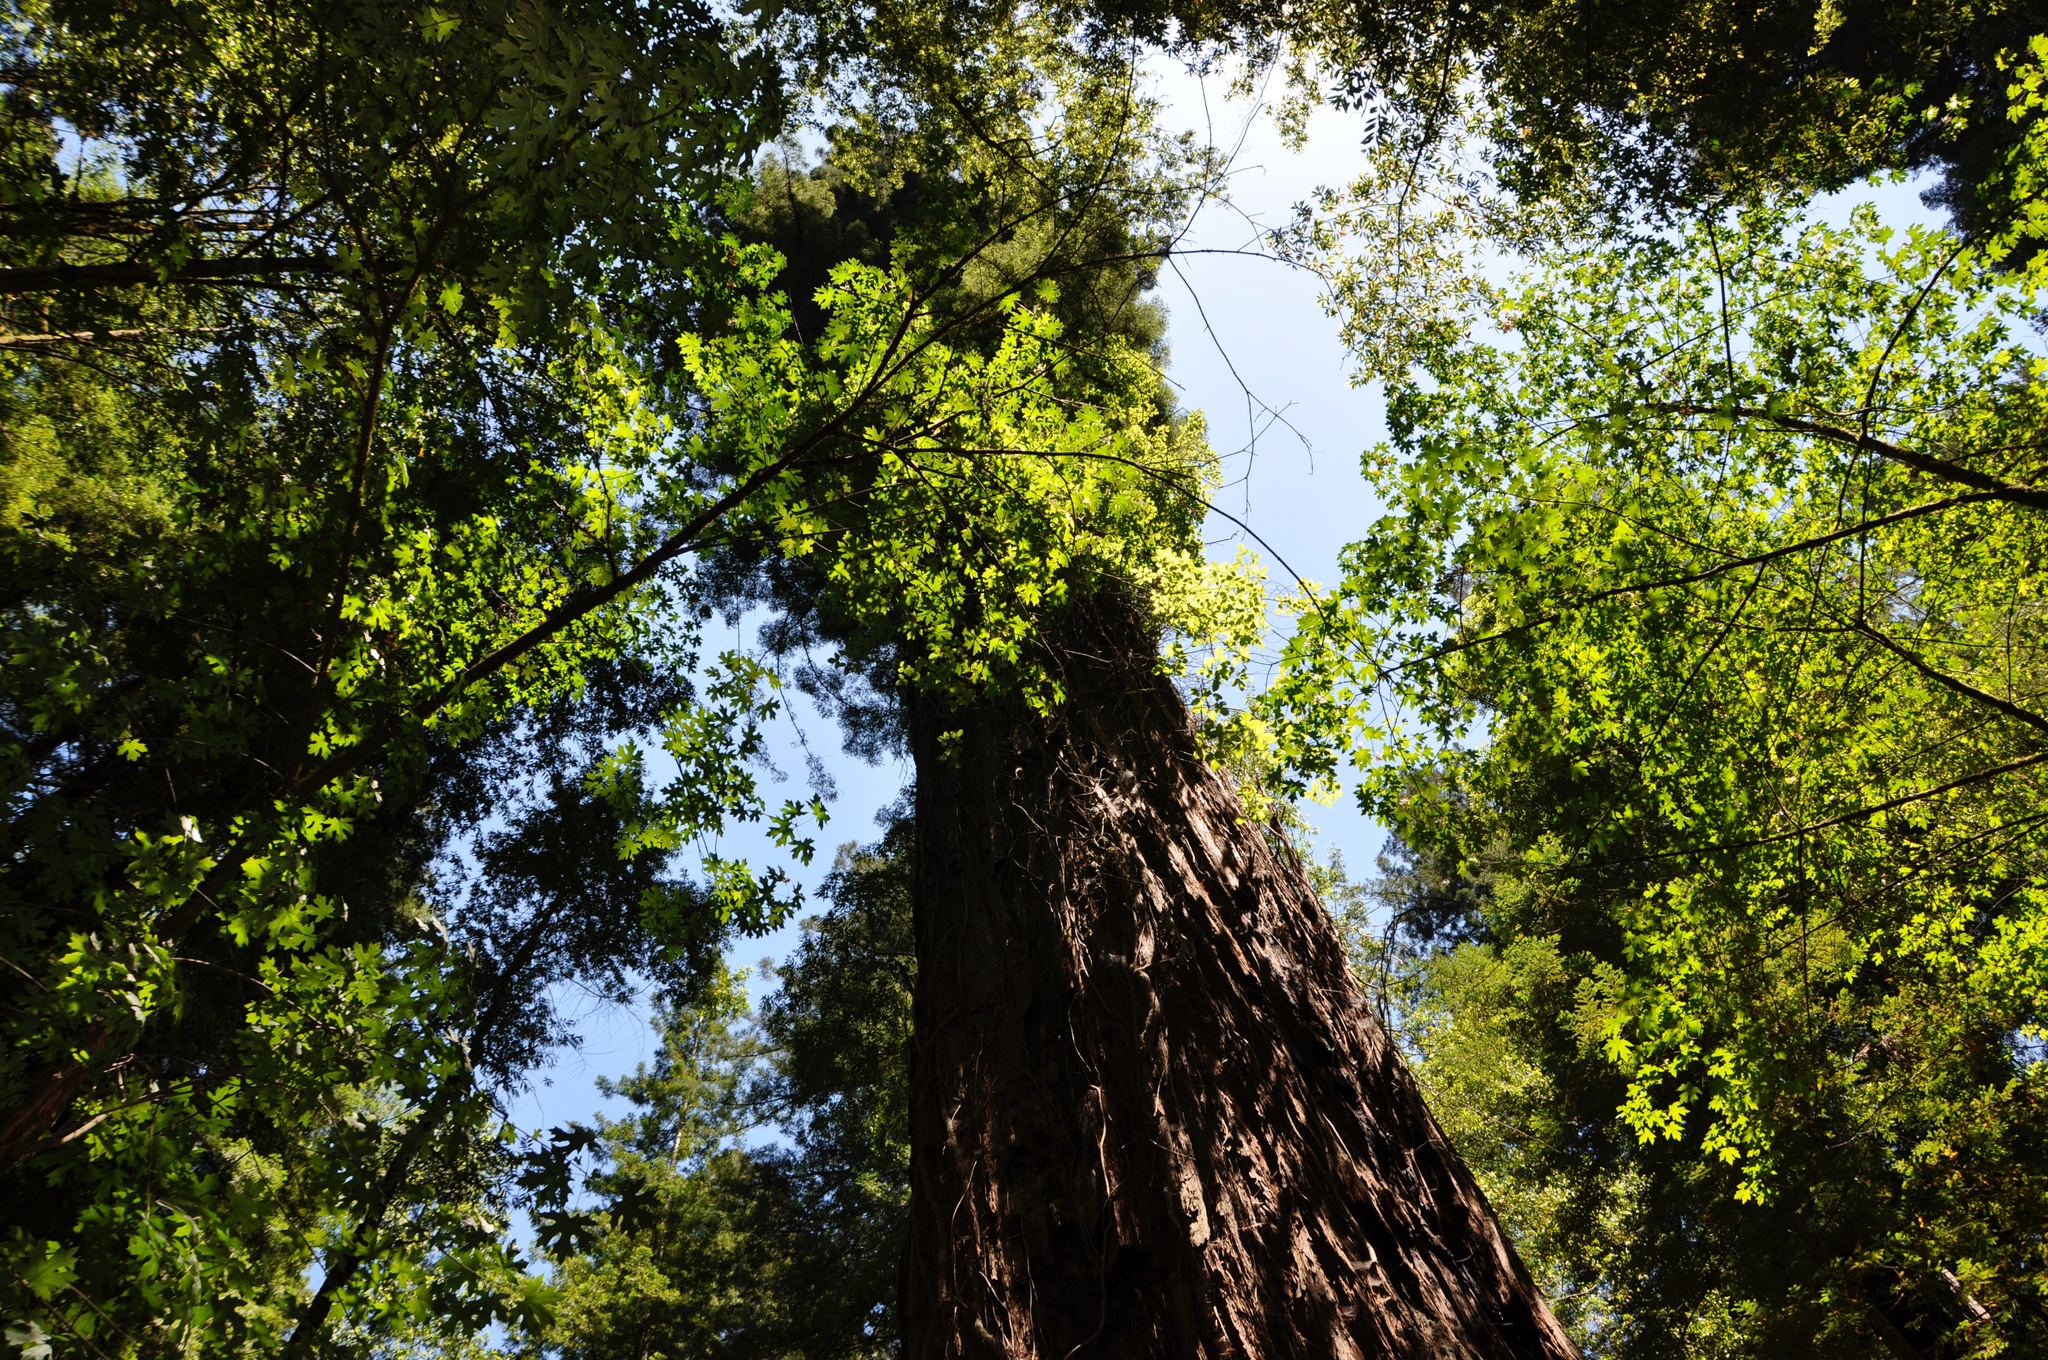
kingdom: Plantae
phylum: Tracheophyta
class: Pinopsida
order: Pinales
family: Cupressaceae
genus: Sequoia
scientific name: Sequoia sempervirens
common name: Coast redwood
